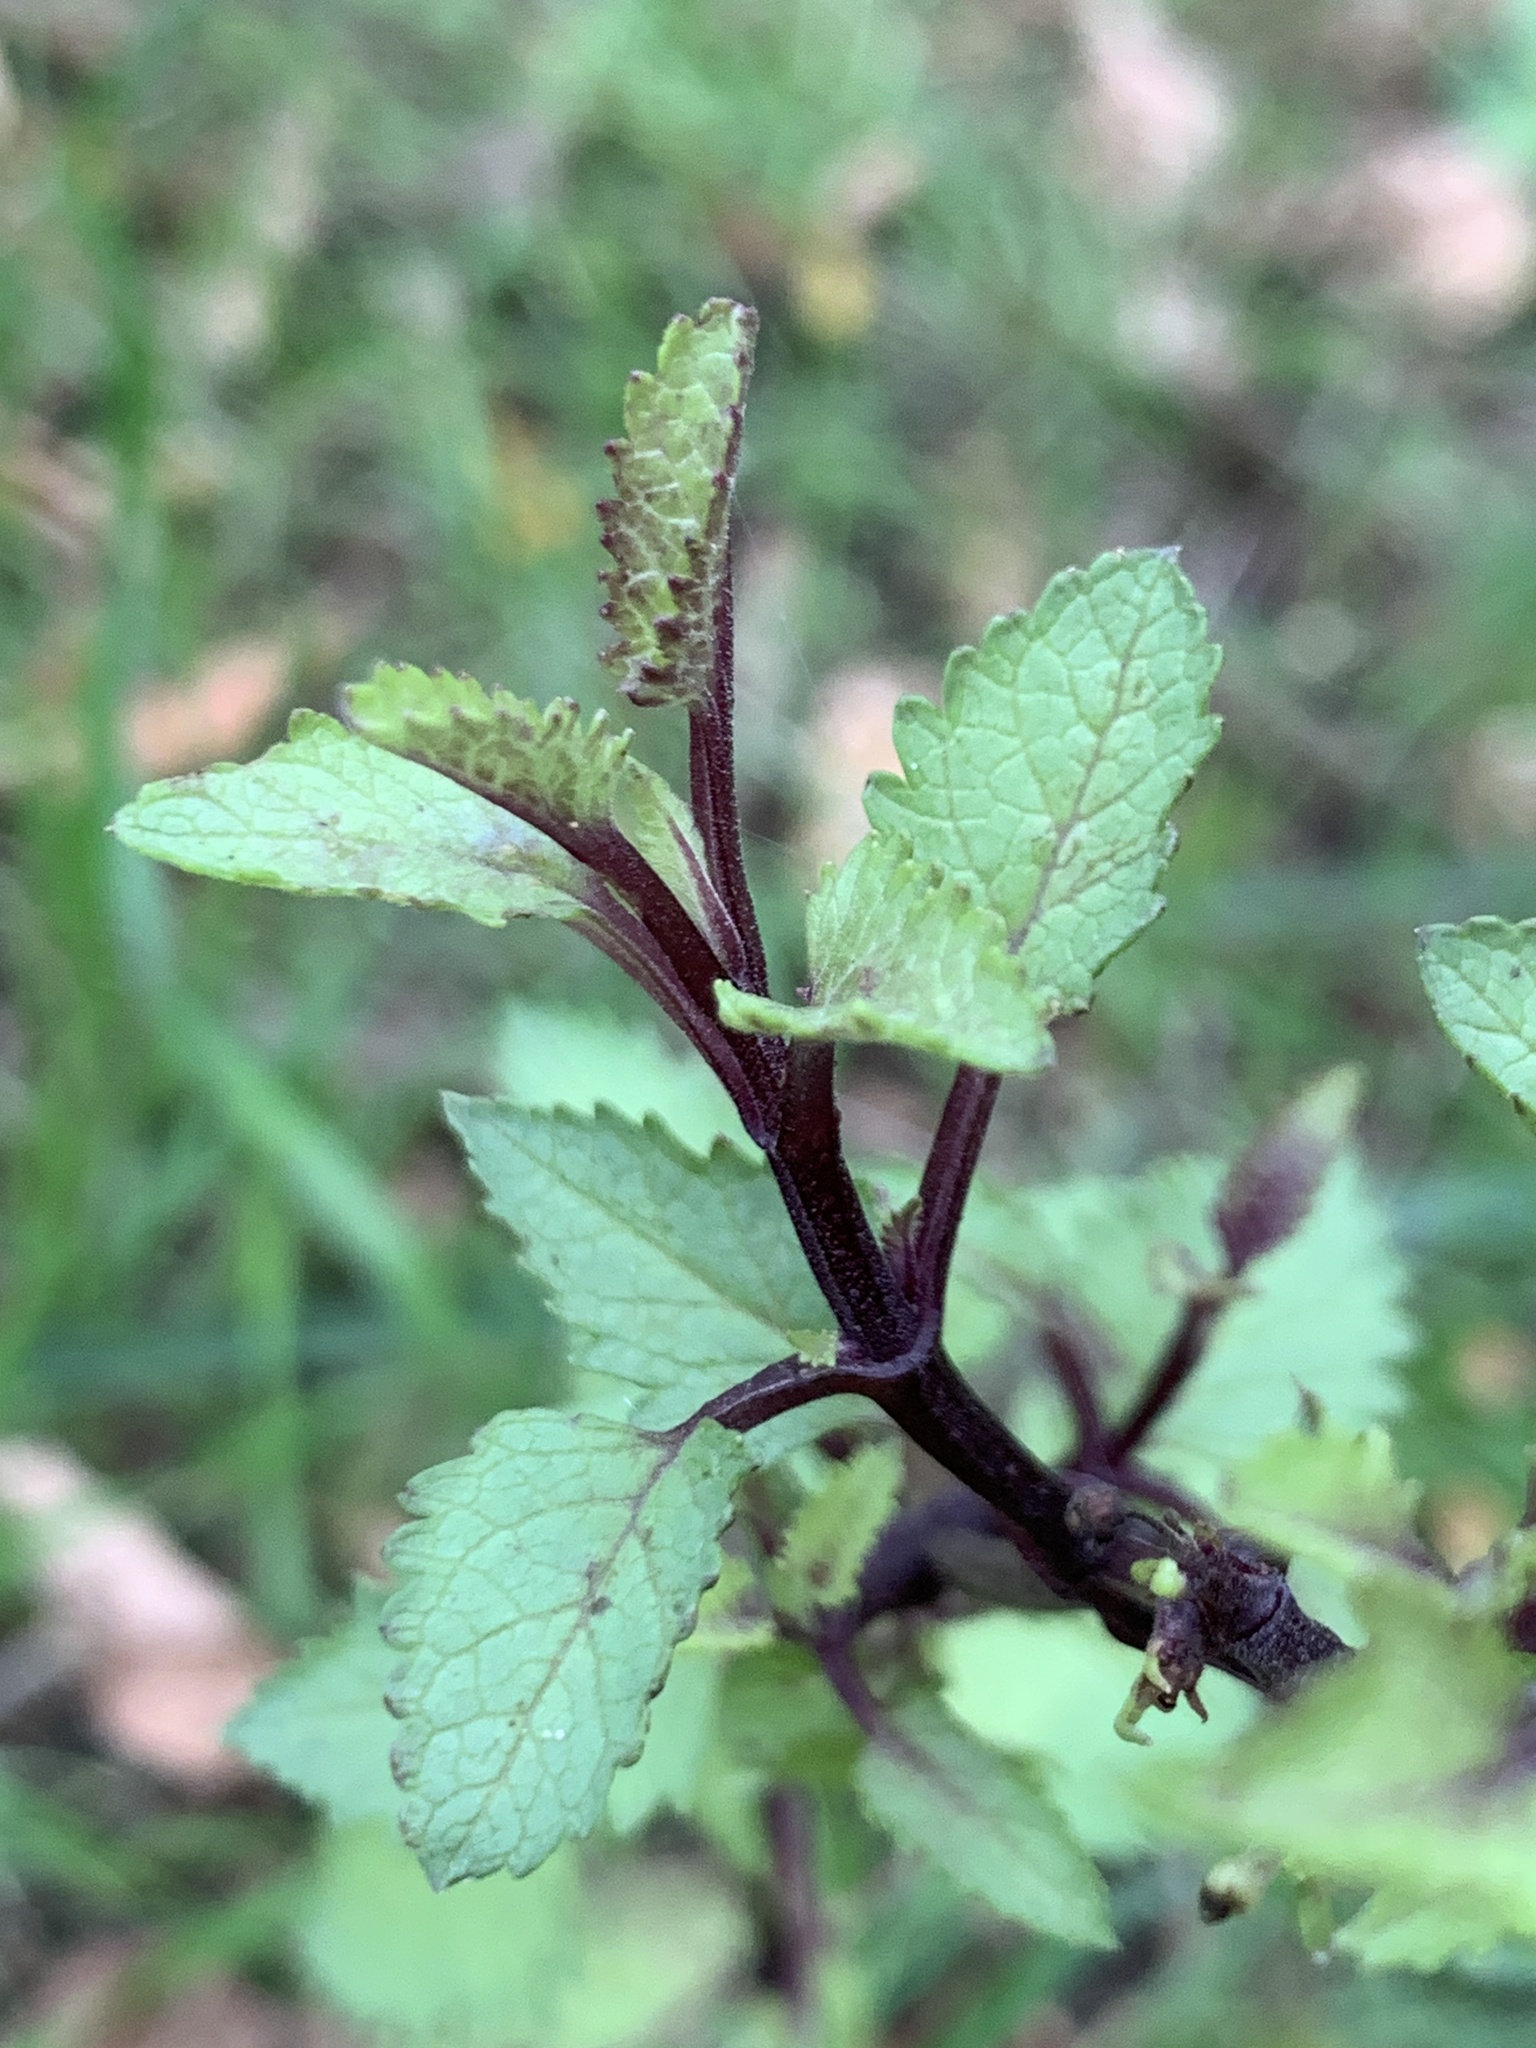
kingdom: Plantae
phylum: Tracheophyta
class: Magnoliopsida
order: Lamiales
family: Scrophulariaceae
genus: Scrophularia
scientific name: Scrophularia californica
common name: California figwort
